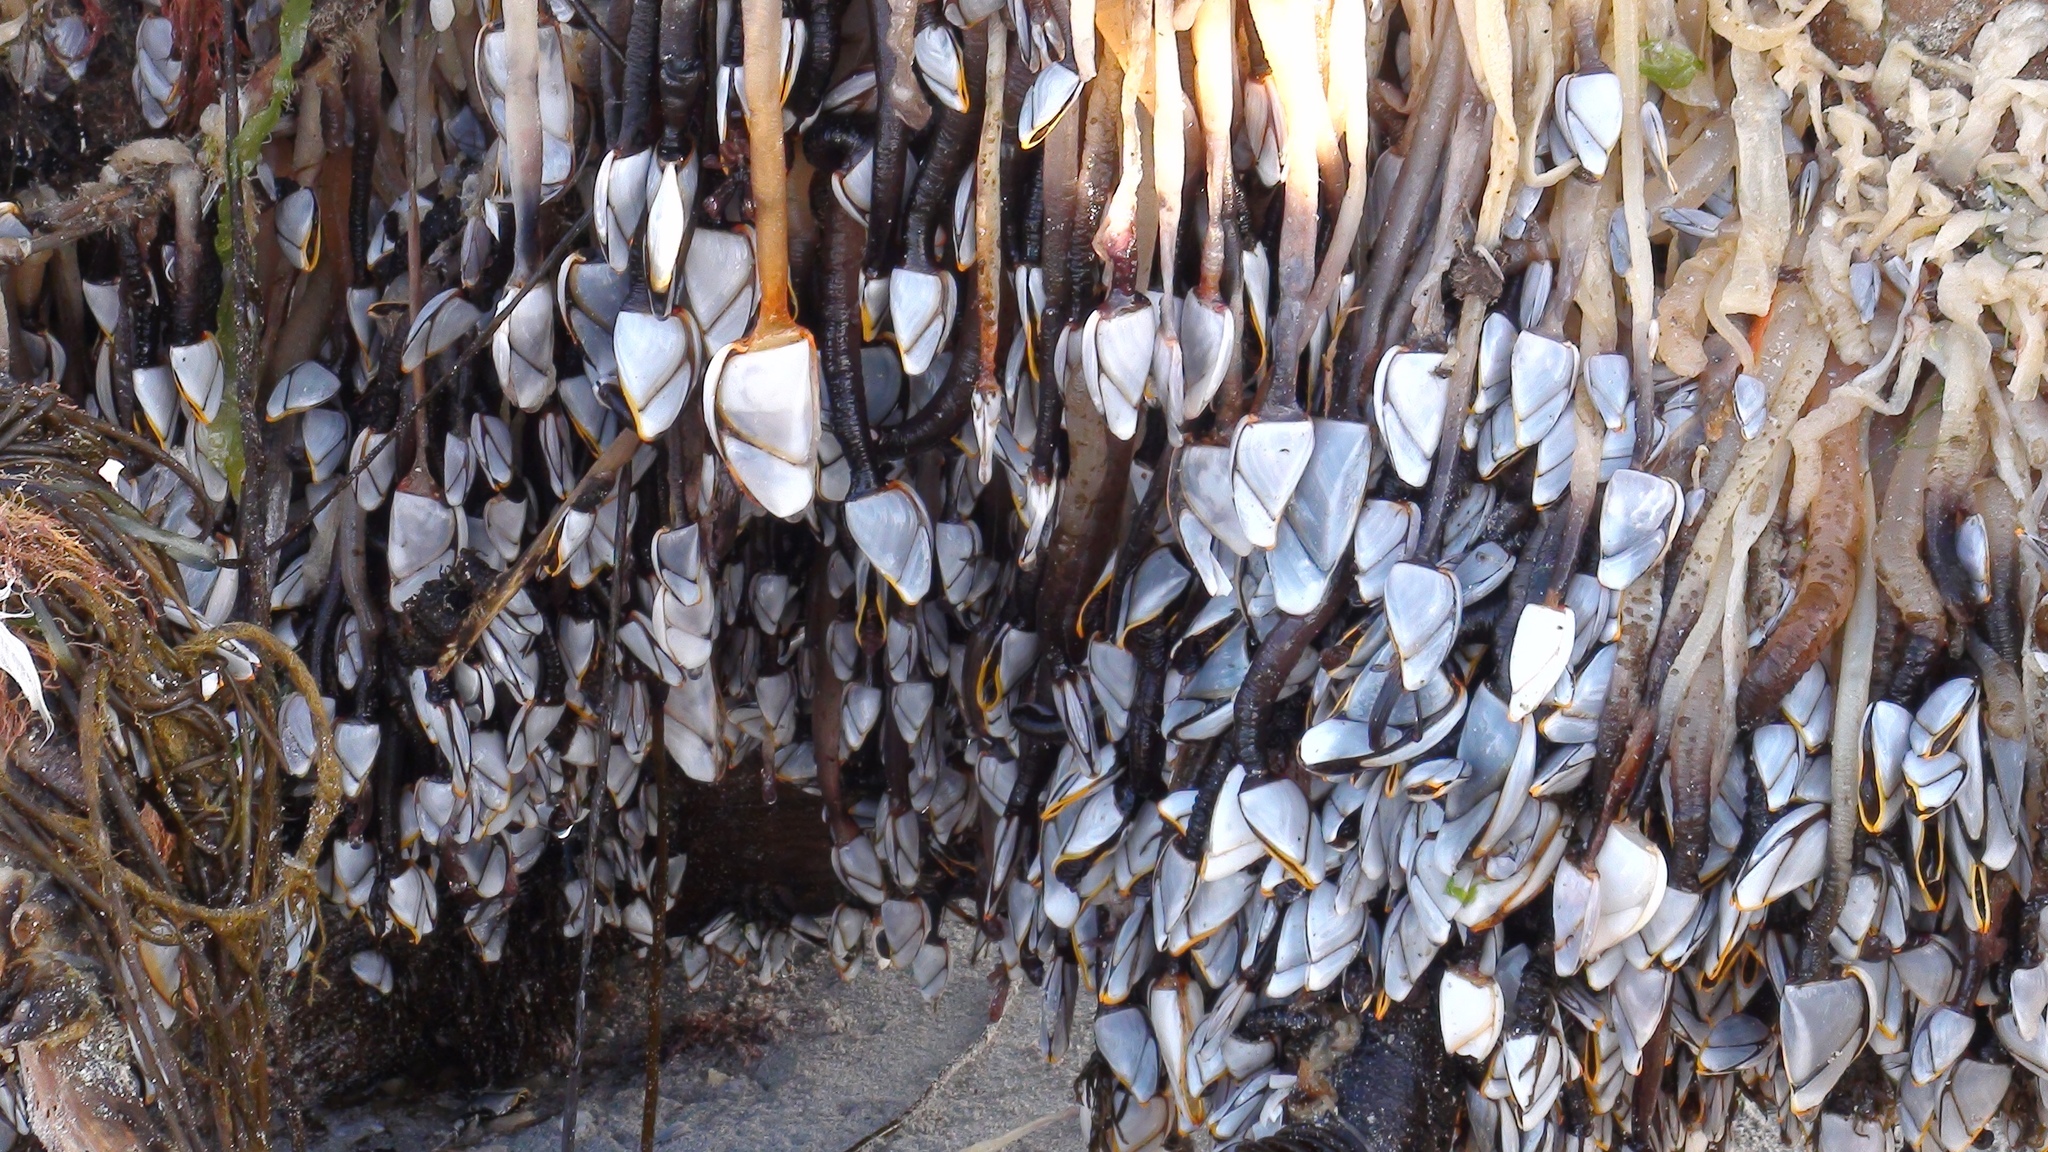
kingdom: Animalia
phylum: Arthropoda
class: Maxillopoda
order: Pedunculata
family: Lepadidae
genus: Lepas
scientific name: Lepas anatifera
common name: Common goose barnacle
